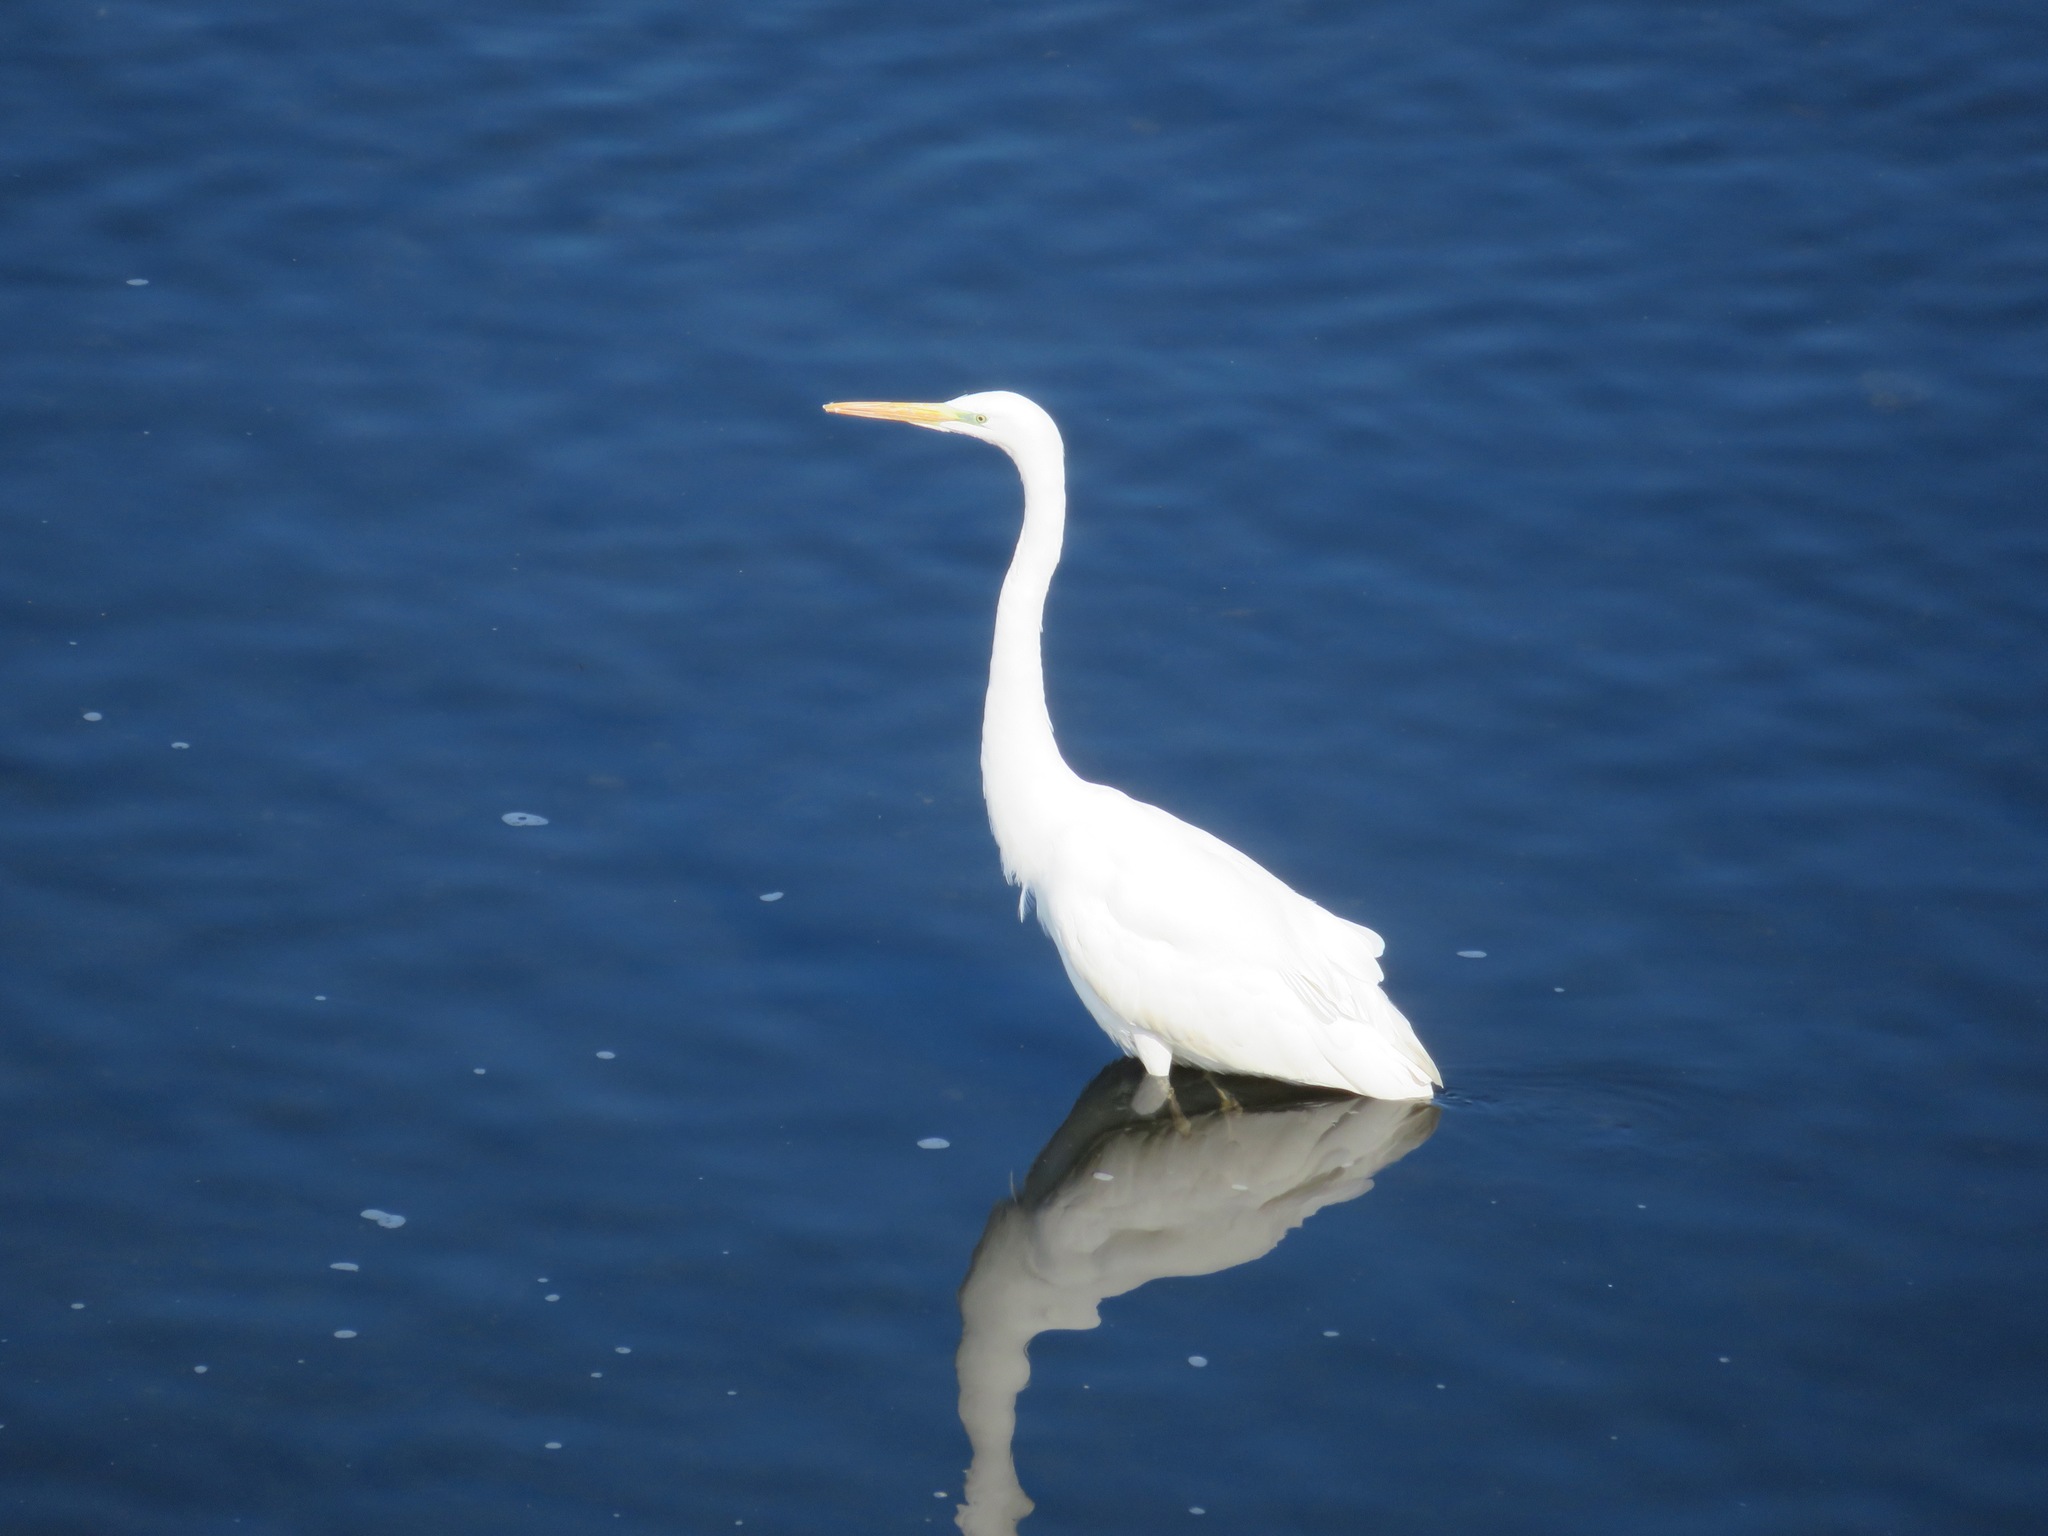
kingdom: Animalia
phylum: Chordata
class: Aves
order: Pelecaniformes
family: Ardeidae
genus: Ardea
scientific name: Ardea alba
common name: Great egret
